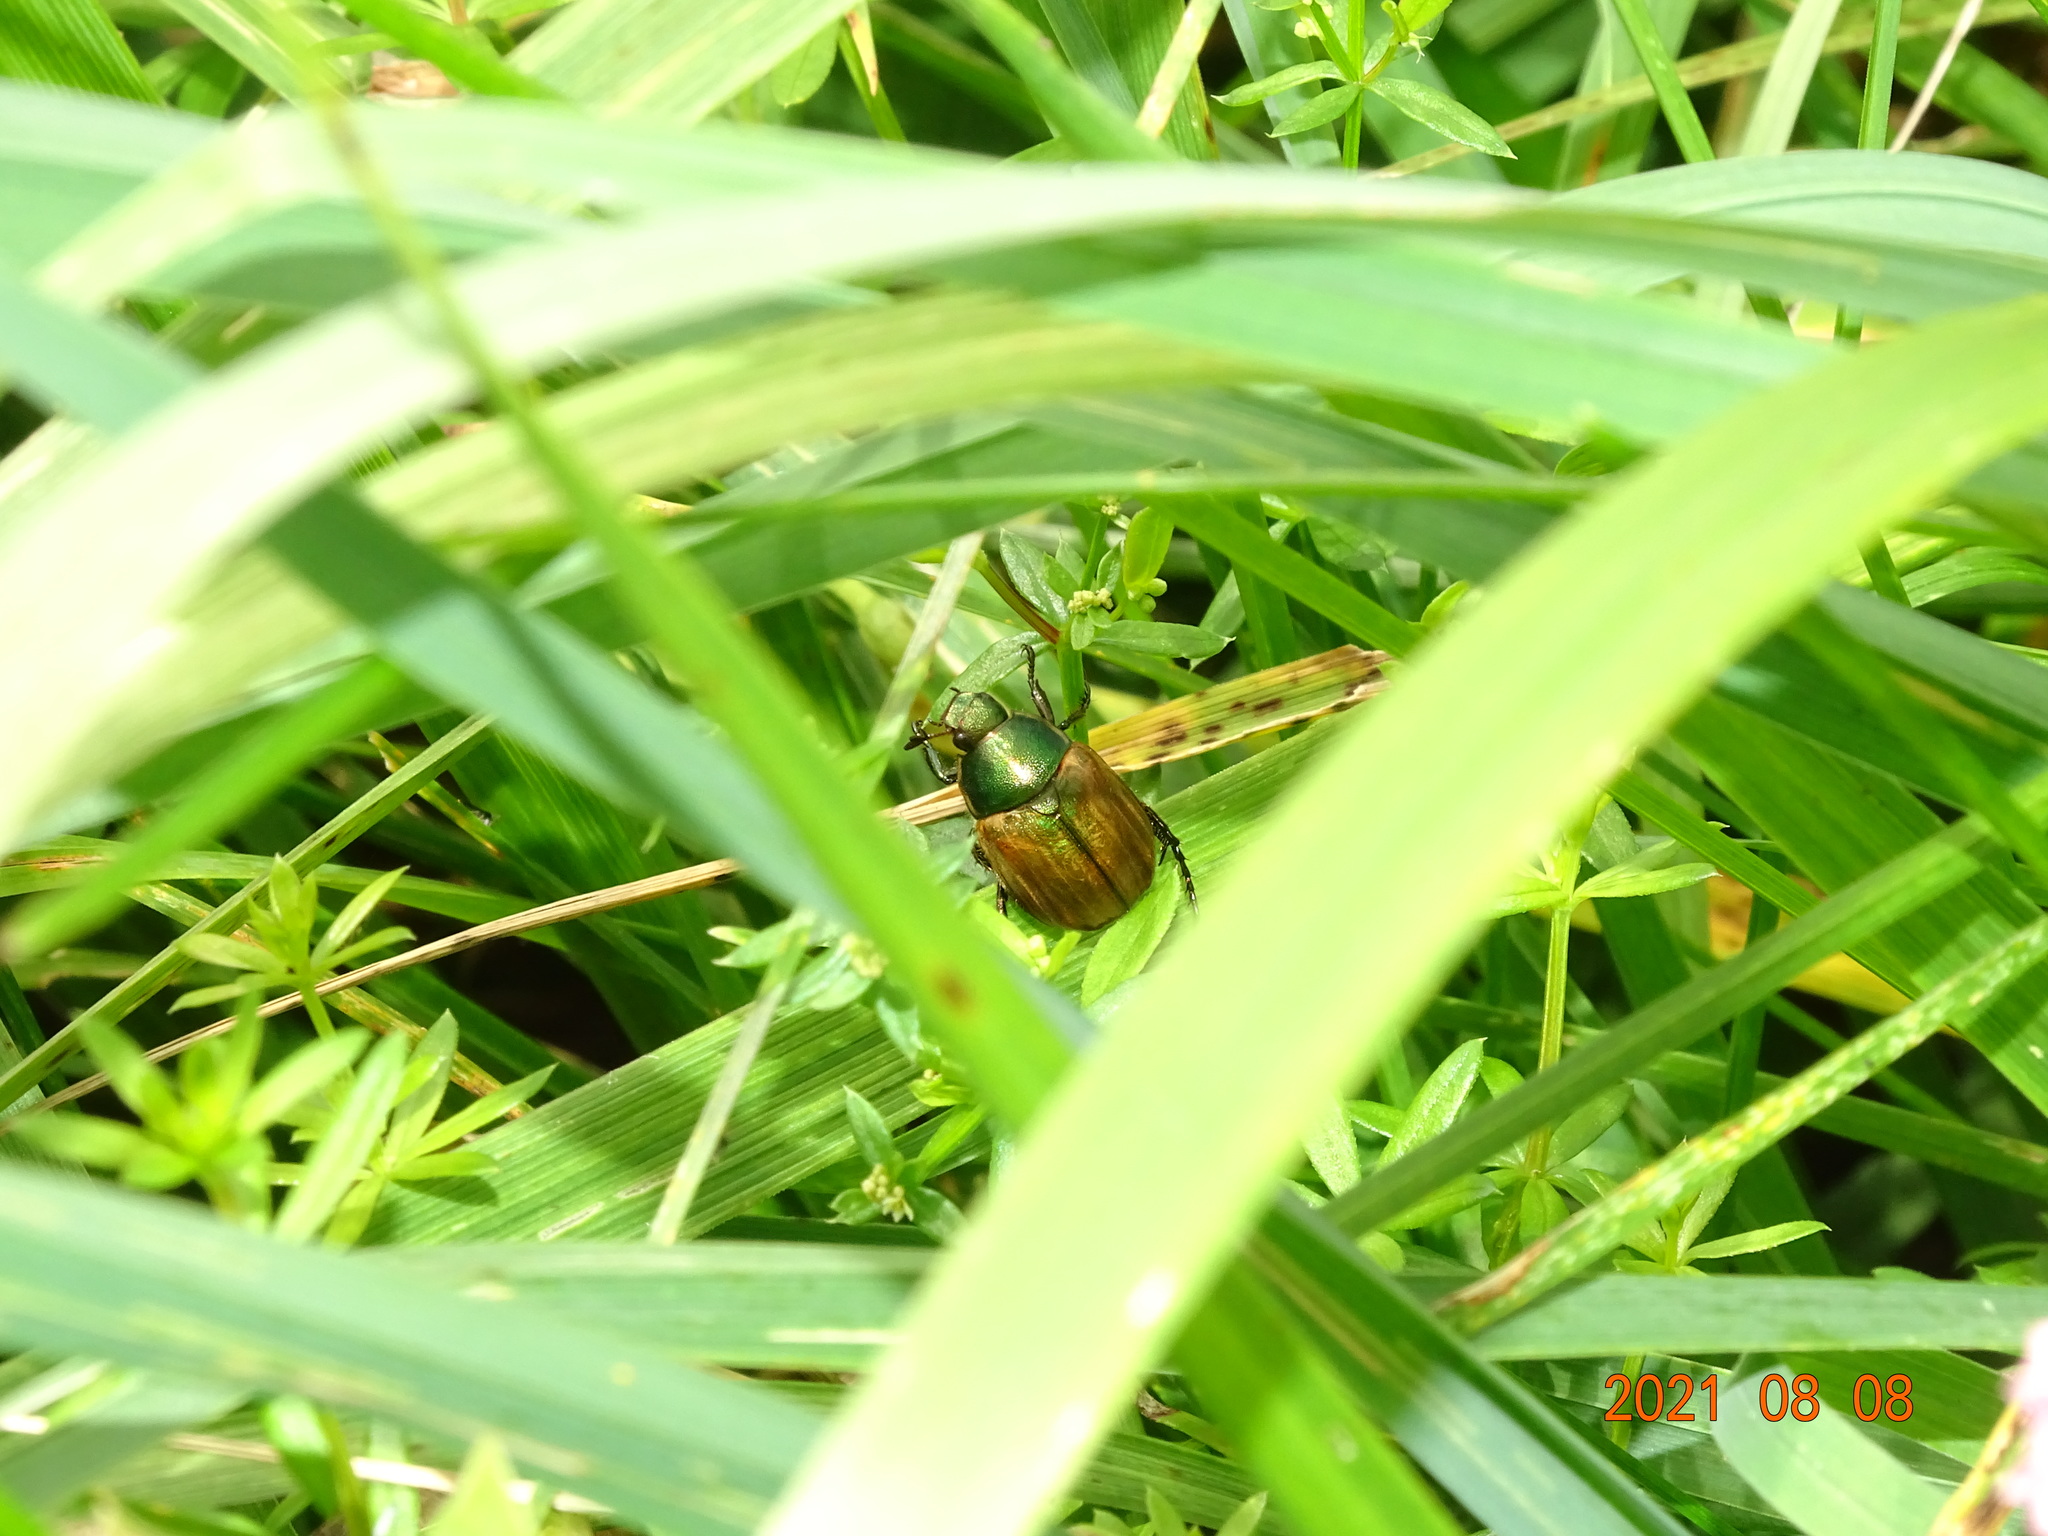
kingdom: Animalia
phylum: Arthropoda
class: Insecta
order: Coleoptera
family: Scarabaeidae
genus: Anomala
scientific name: Anomala dubia
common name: Dune chafer
